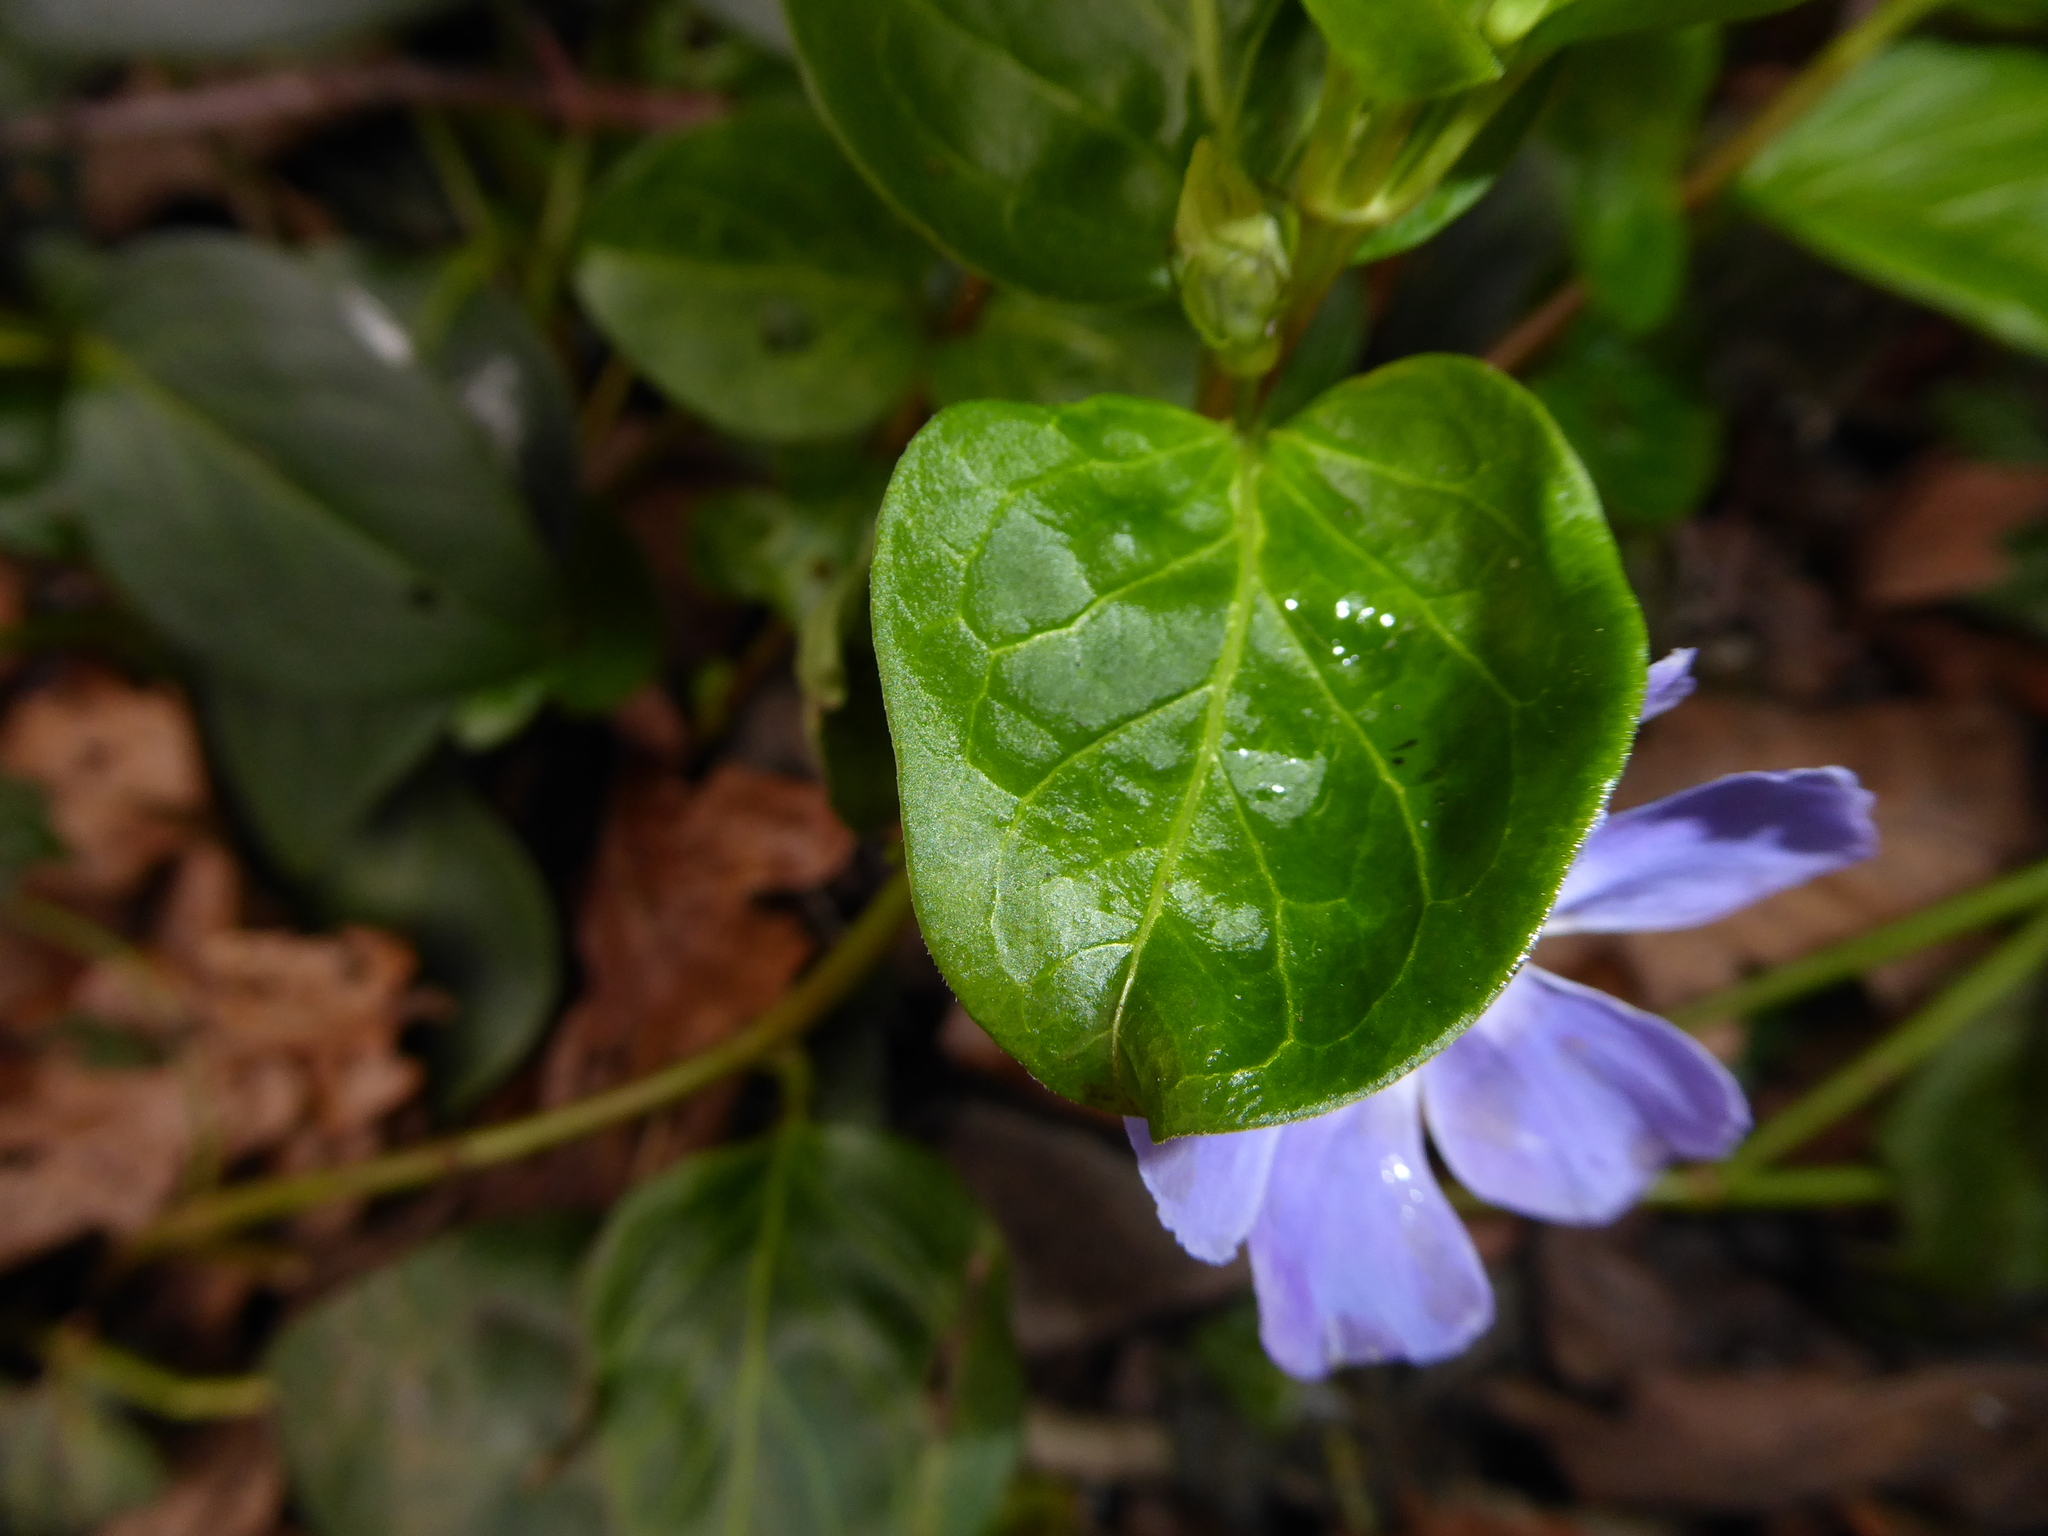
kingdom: Plantae
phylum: Tracheophyta
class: Magnoliopsida
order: Gentianales
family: Apocynaceae
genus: Vinca
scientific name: Vinca major
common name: Greater periwinkle
